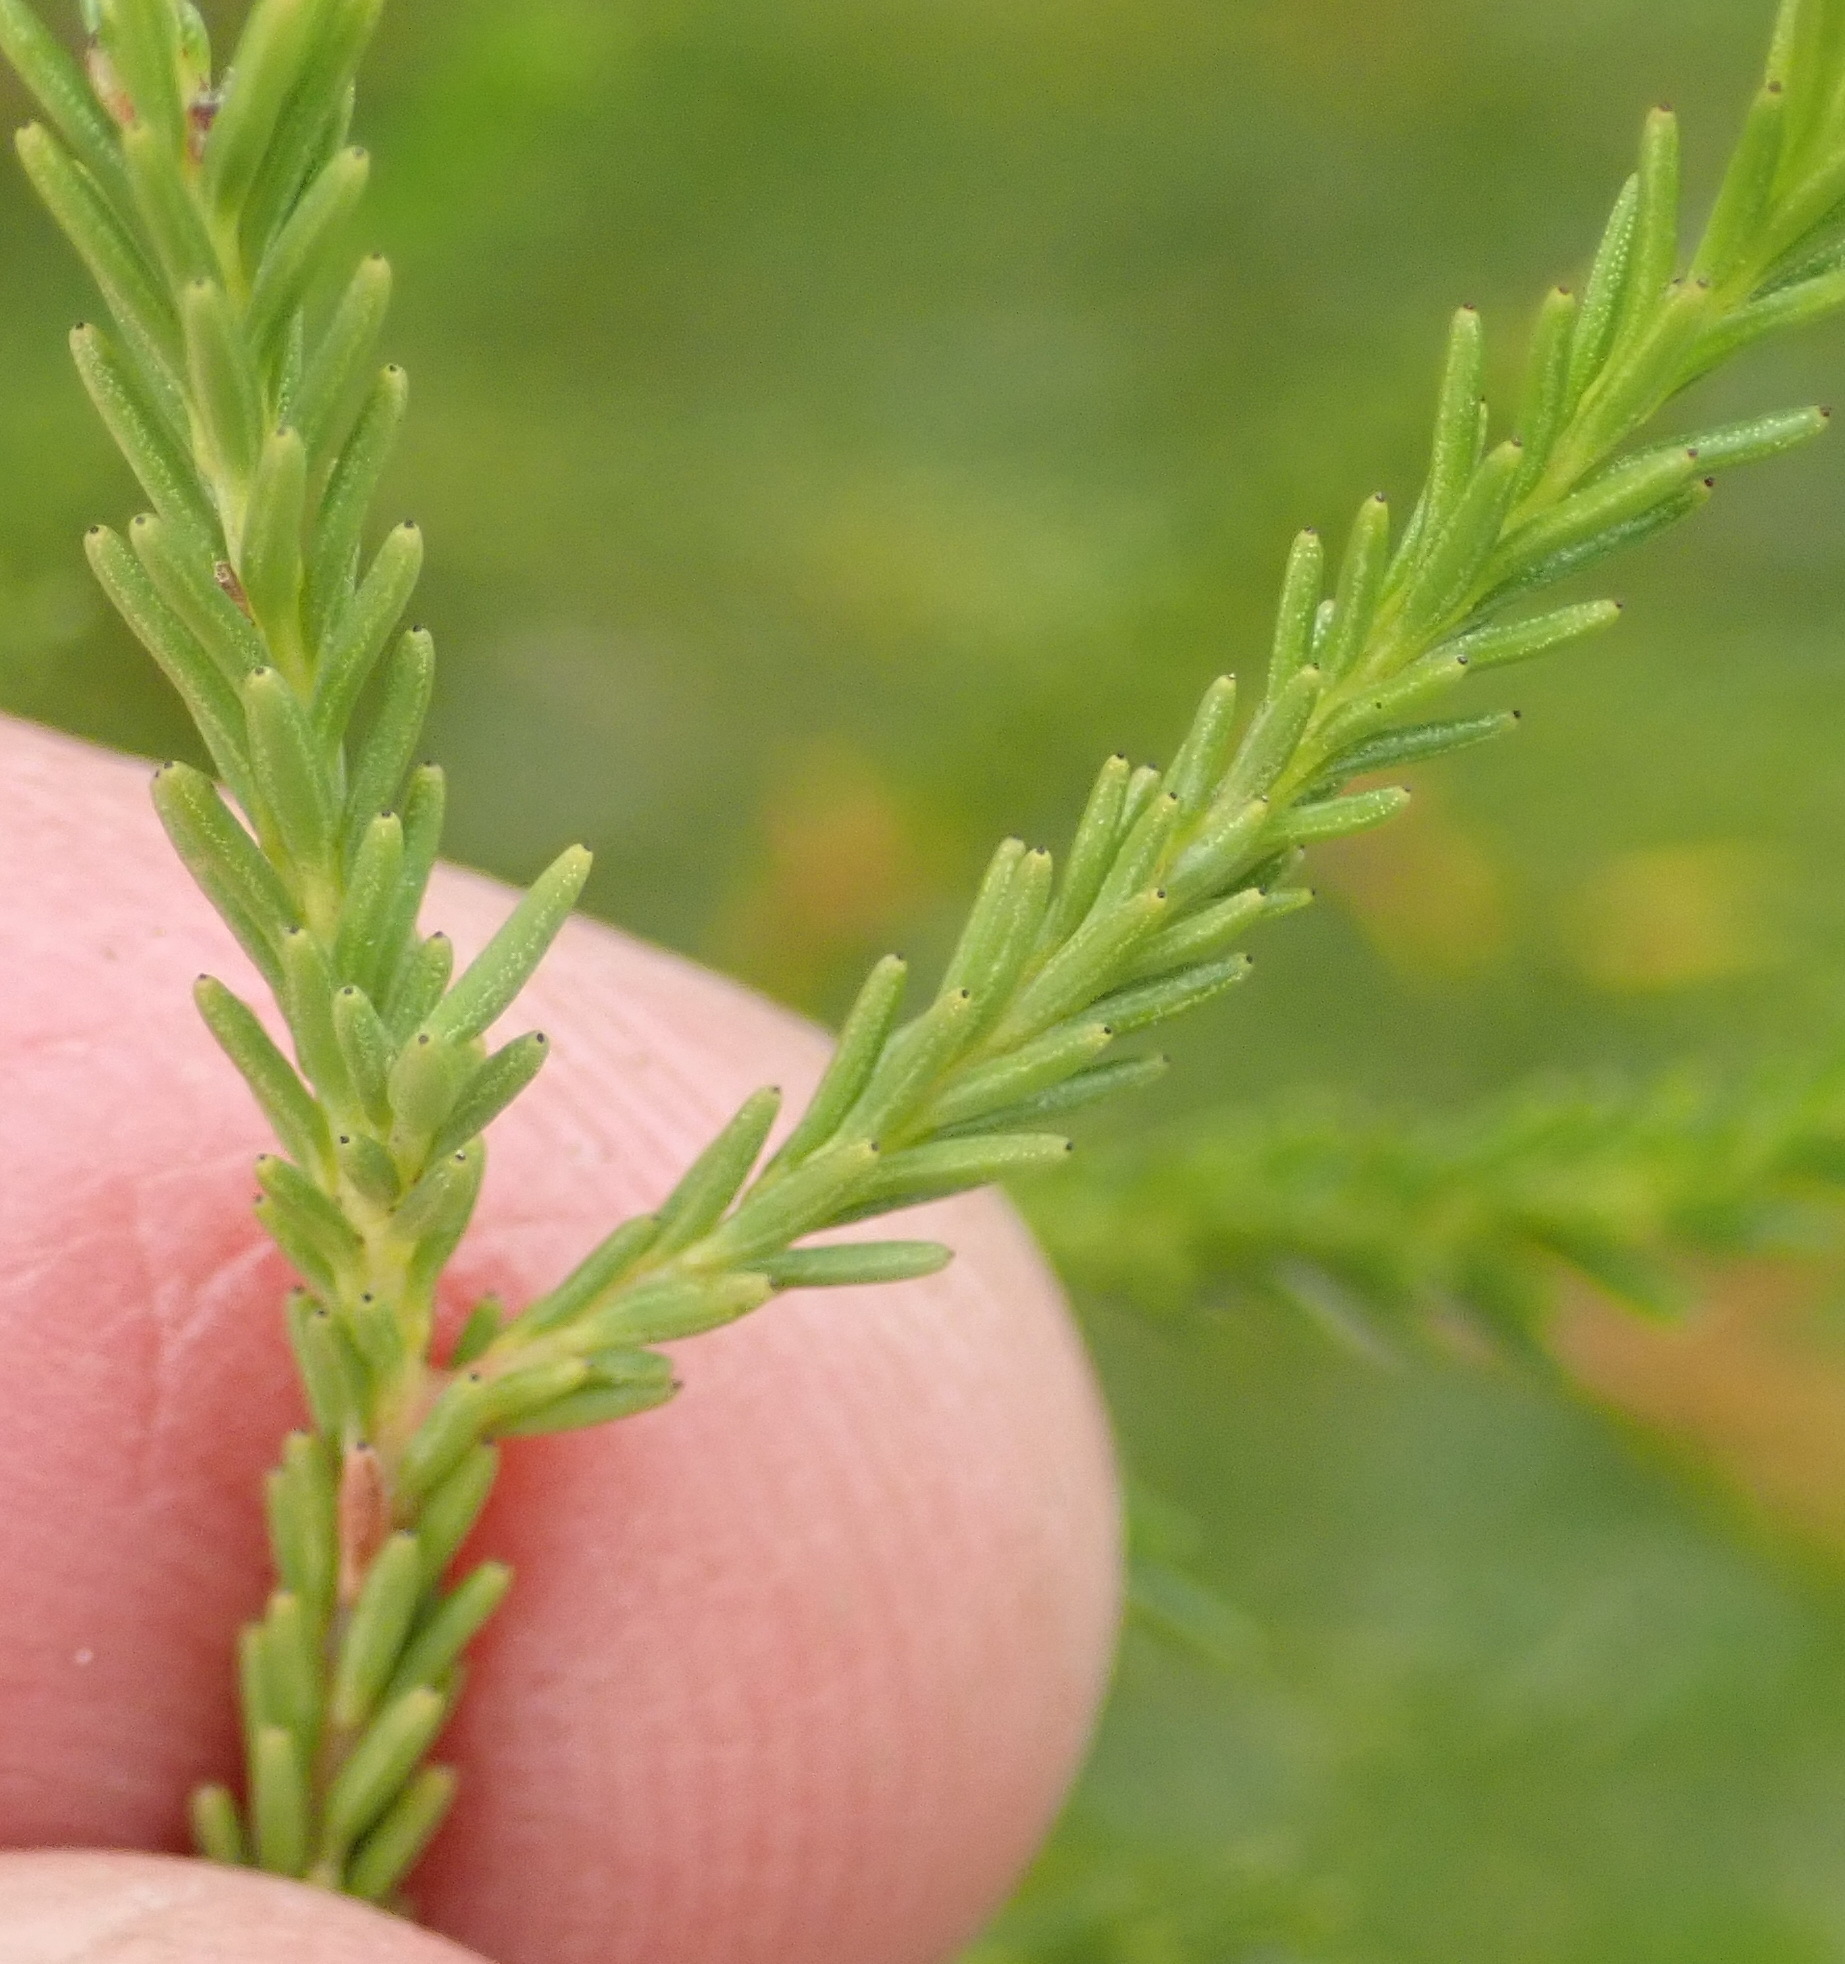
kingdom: Plantae
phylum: Tracheophyta
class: Magnoliopsida
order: Bruniales
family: Bruniaceae
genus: Berzelia
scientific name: Berzelia intermedia
